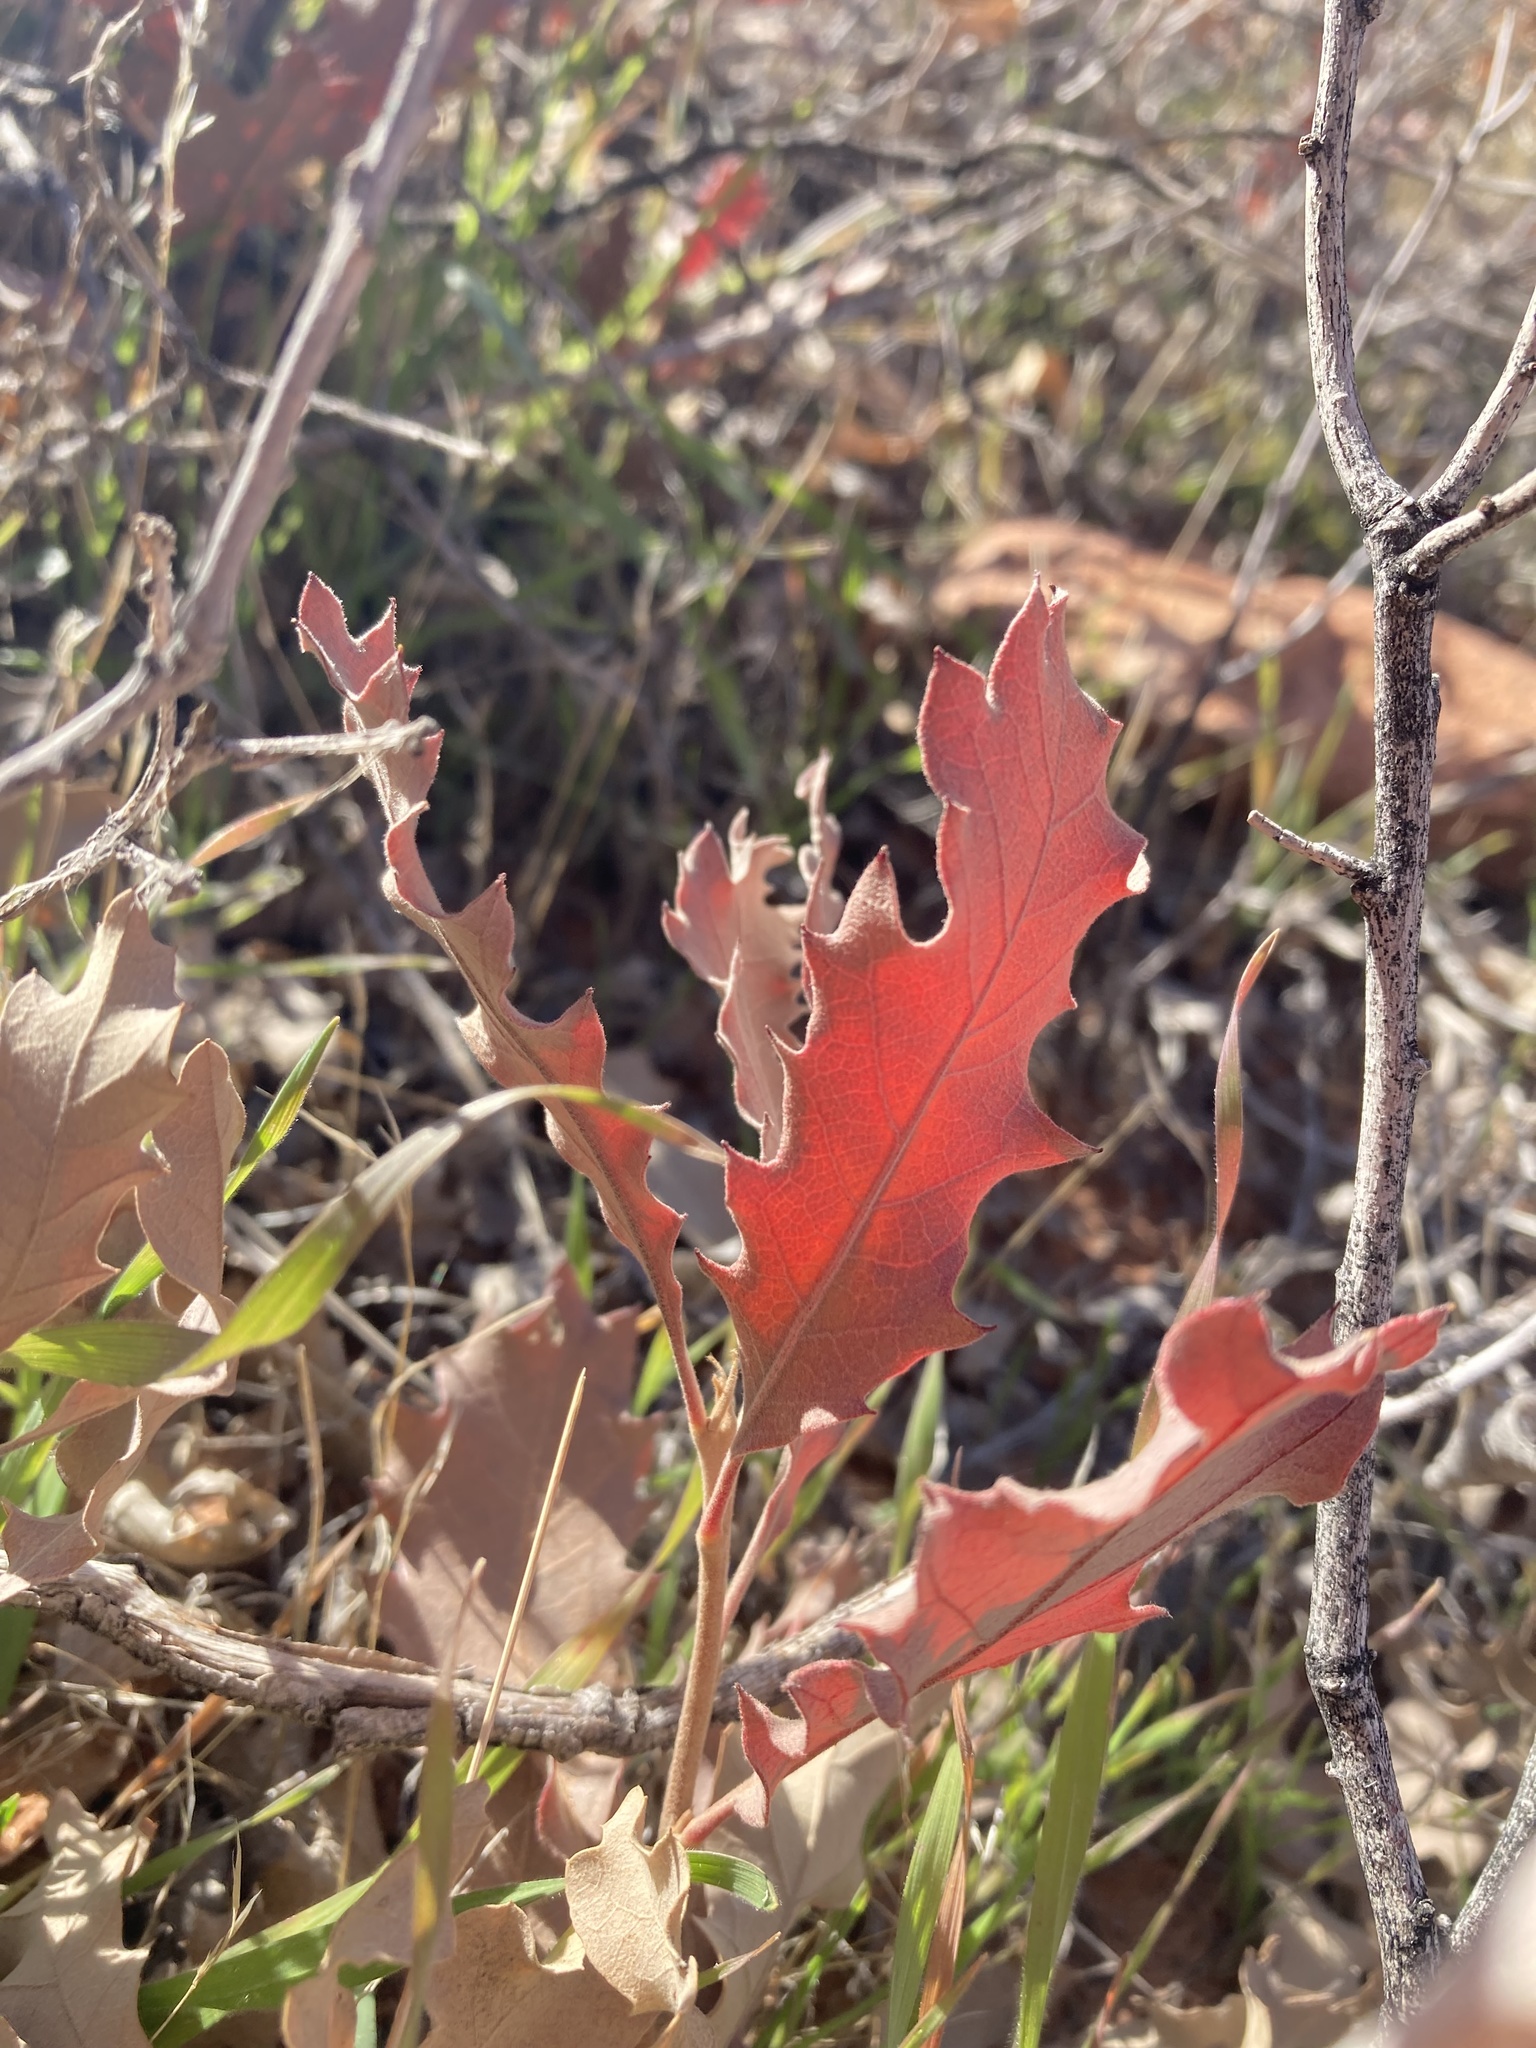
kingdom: Plantae
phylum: Tracheophyta
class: Magnoliopsida
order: Fagales
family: Fagaceae
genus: Quercus
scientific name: Quercus welshii
